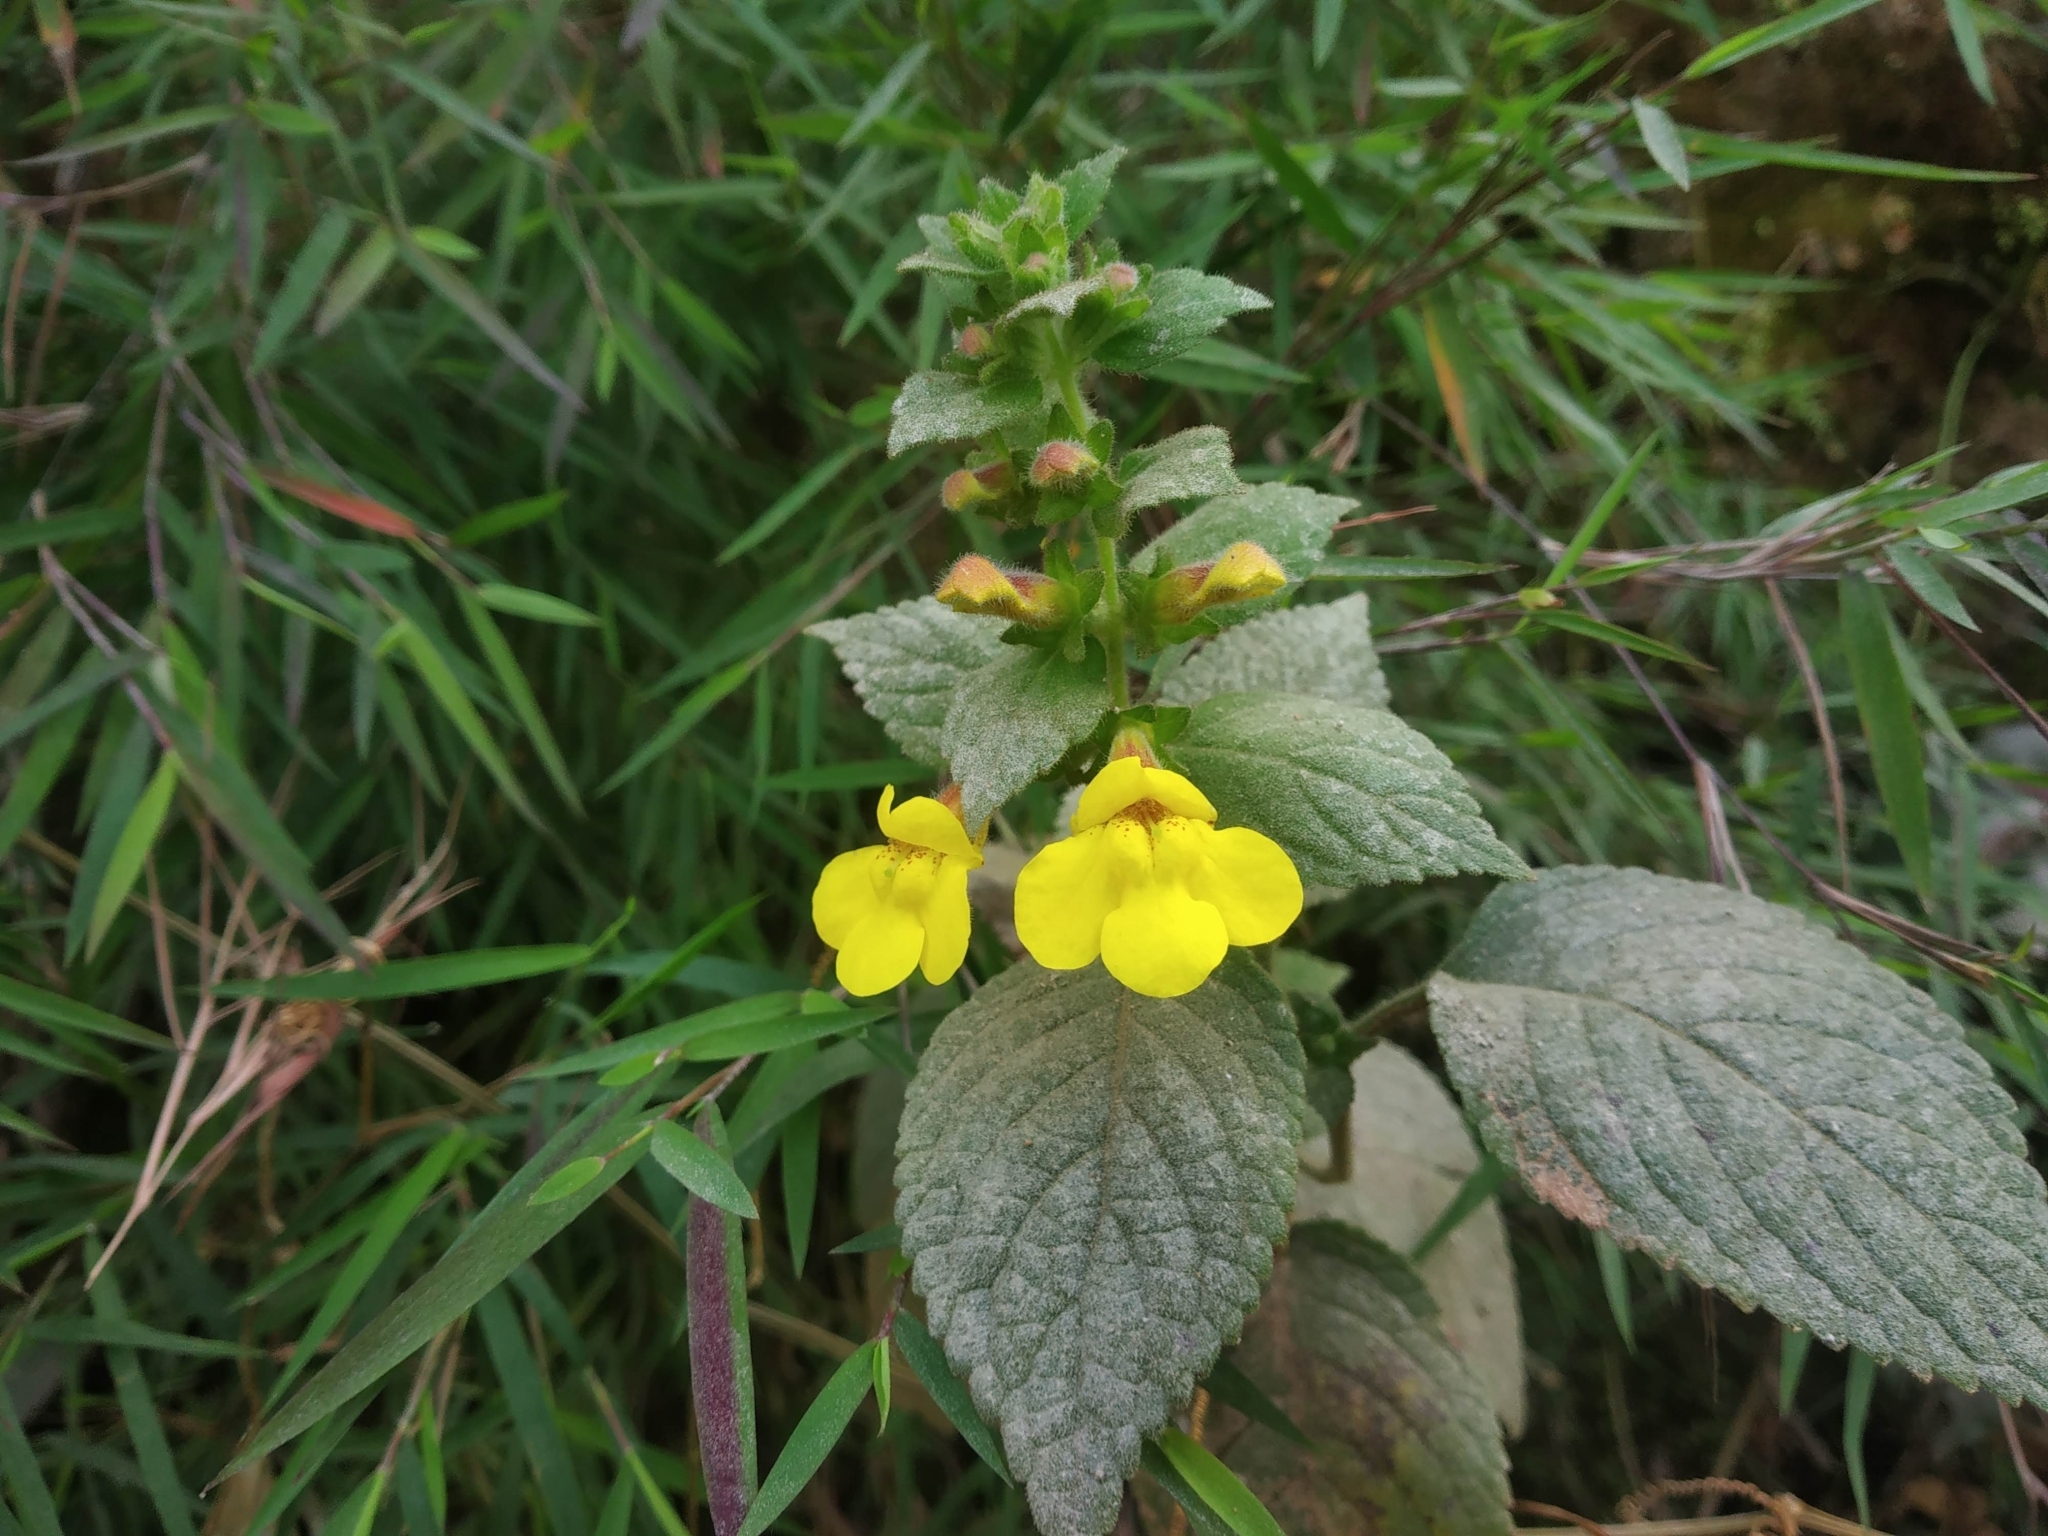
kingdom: Plantae
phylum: Tracheophyta
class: Magnoliopsida
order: Lamiales
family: Orobanchaceae
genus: Lindenbergia
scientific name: Lindenbergia grandiflora
